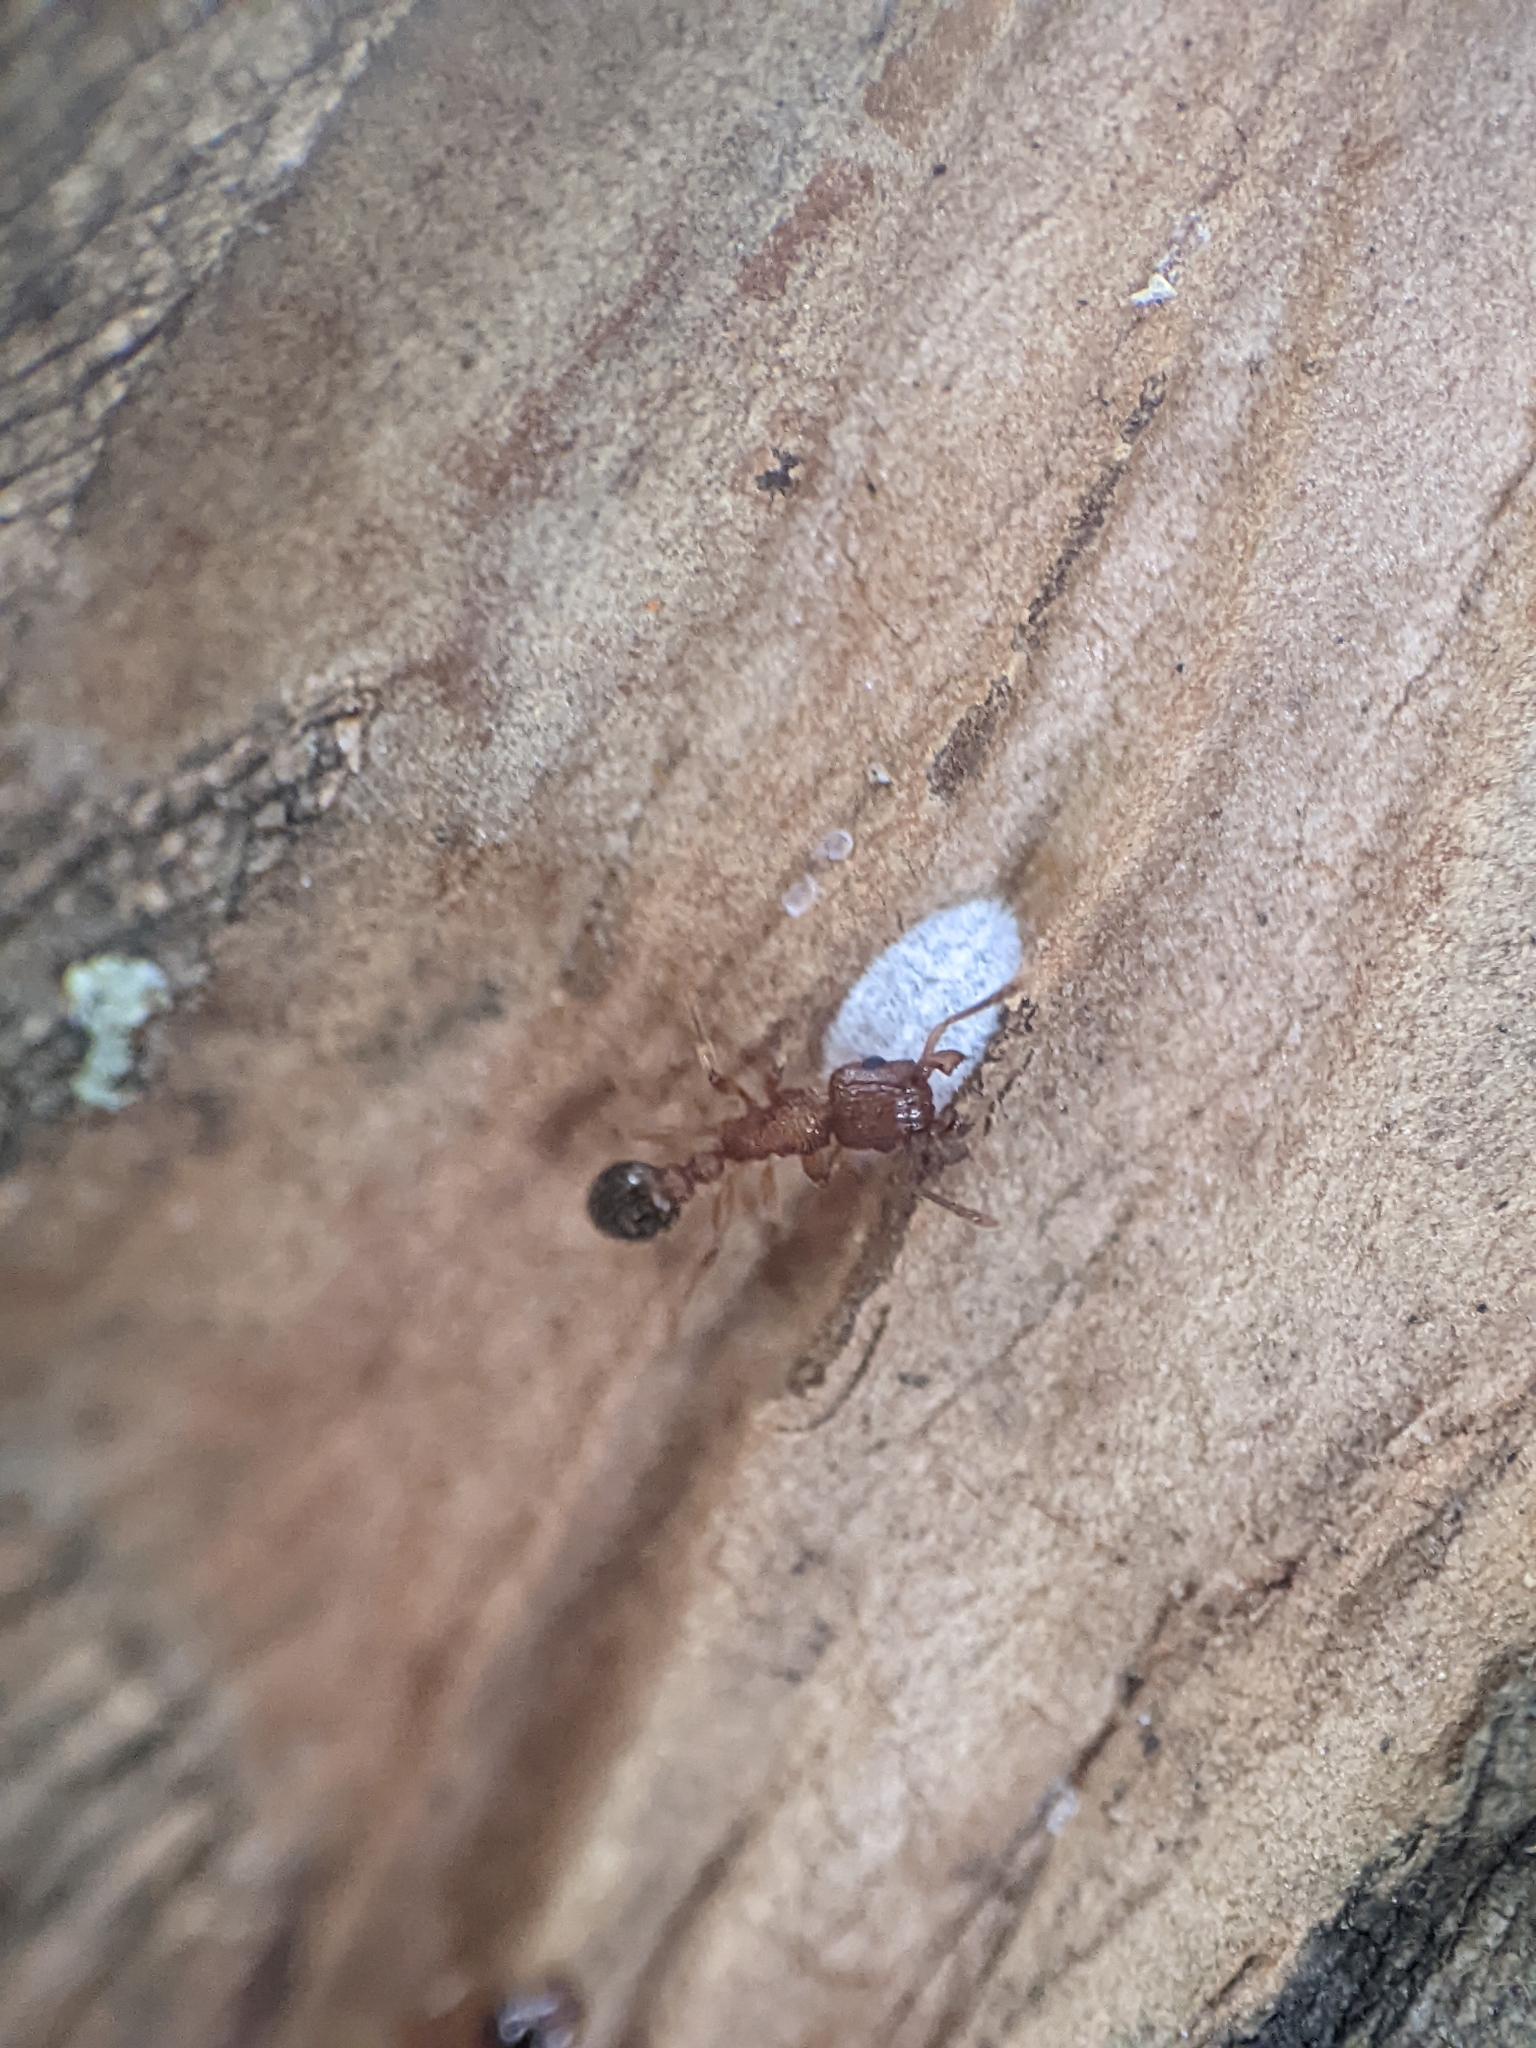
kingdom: Animalia
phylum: Arthropoda
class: Insecta
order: Hymenoptera
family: Formicidae
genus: Tetramorium
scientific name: Tetramorium bicarinatum
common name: Guinea ant
